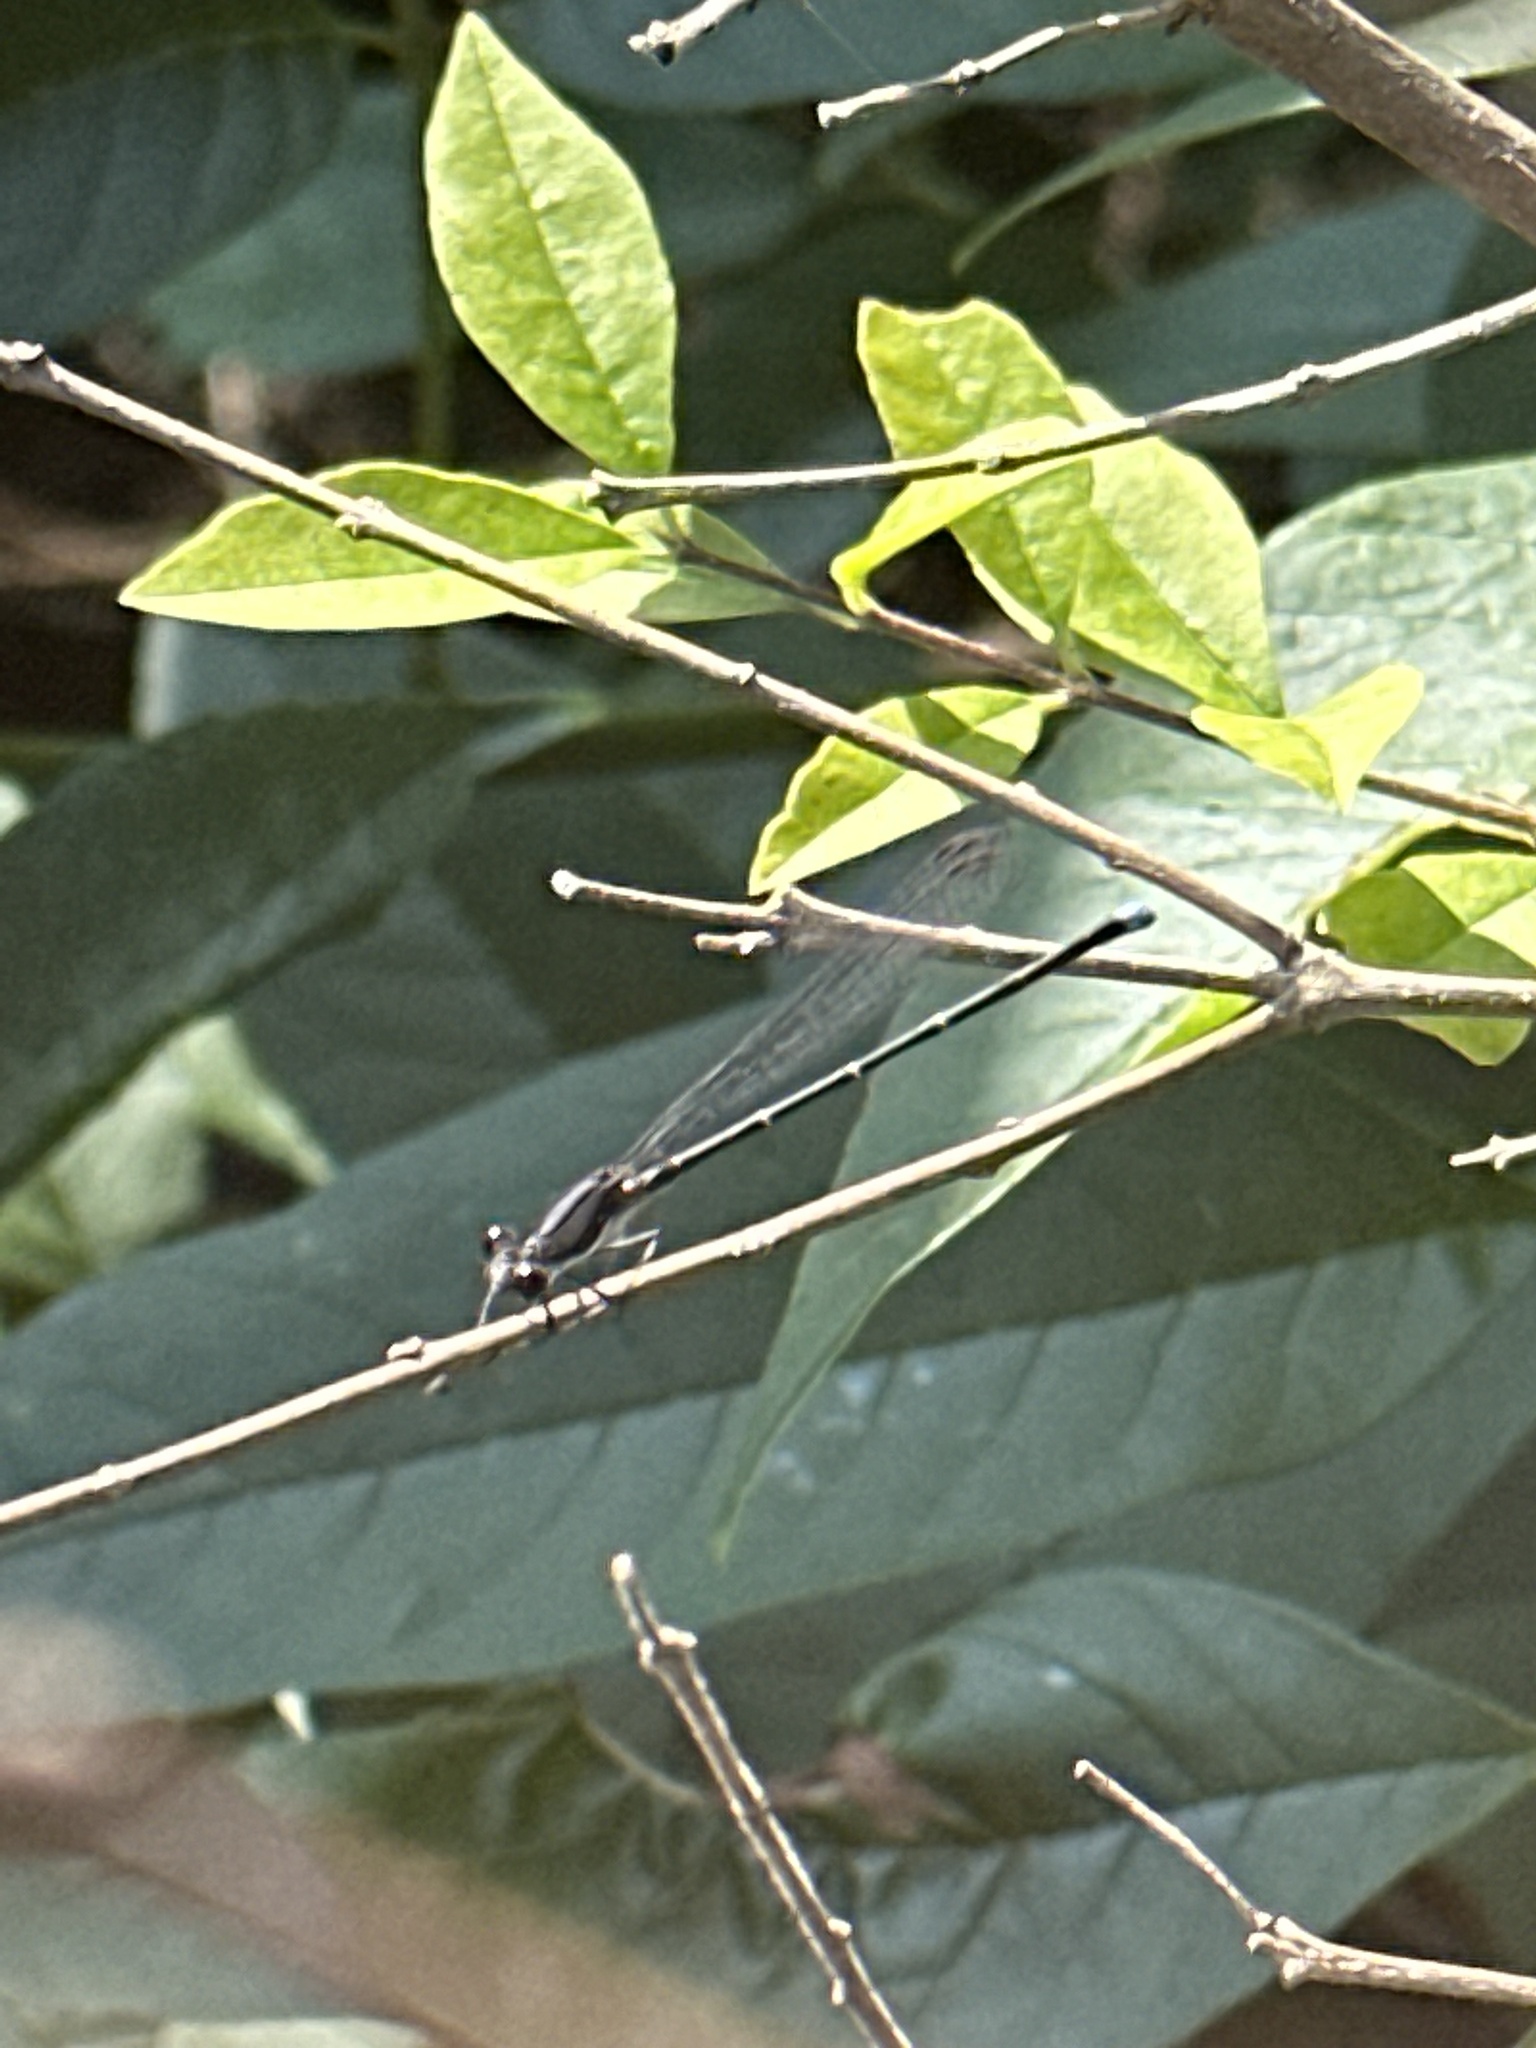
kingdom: Animalia
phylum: Arthropoda
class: Insecta
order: Odonata
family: Coenagrionidae
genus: Argia
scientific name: Argia tibialis
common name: Blue-tipped dancer
